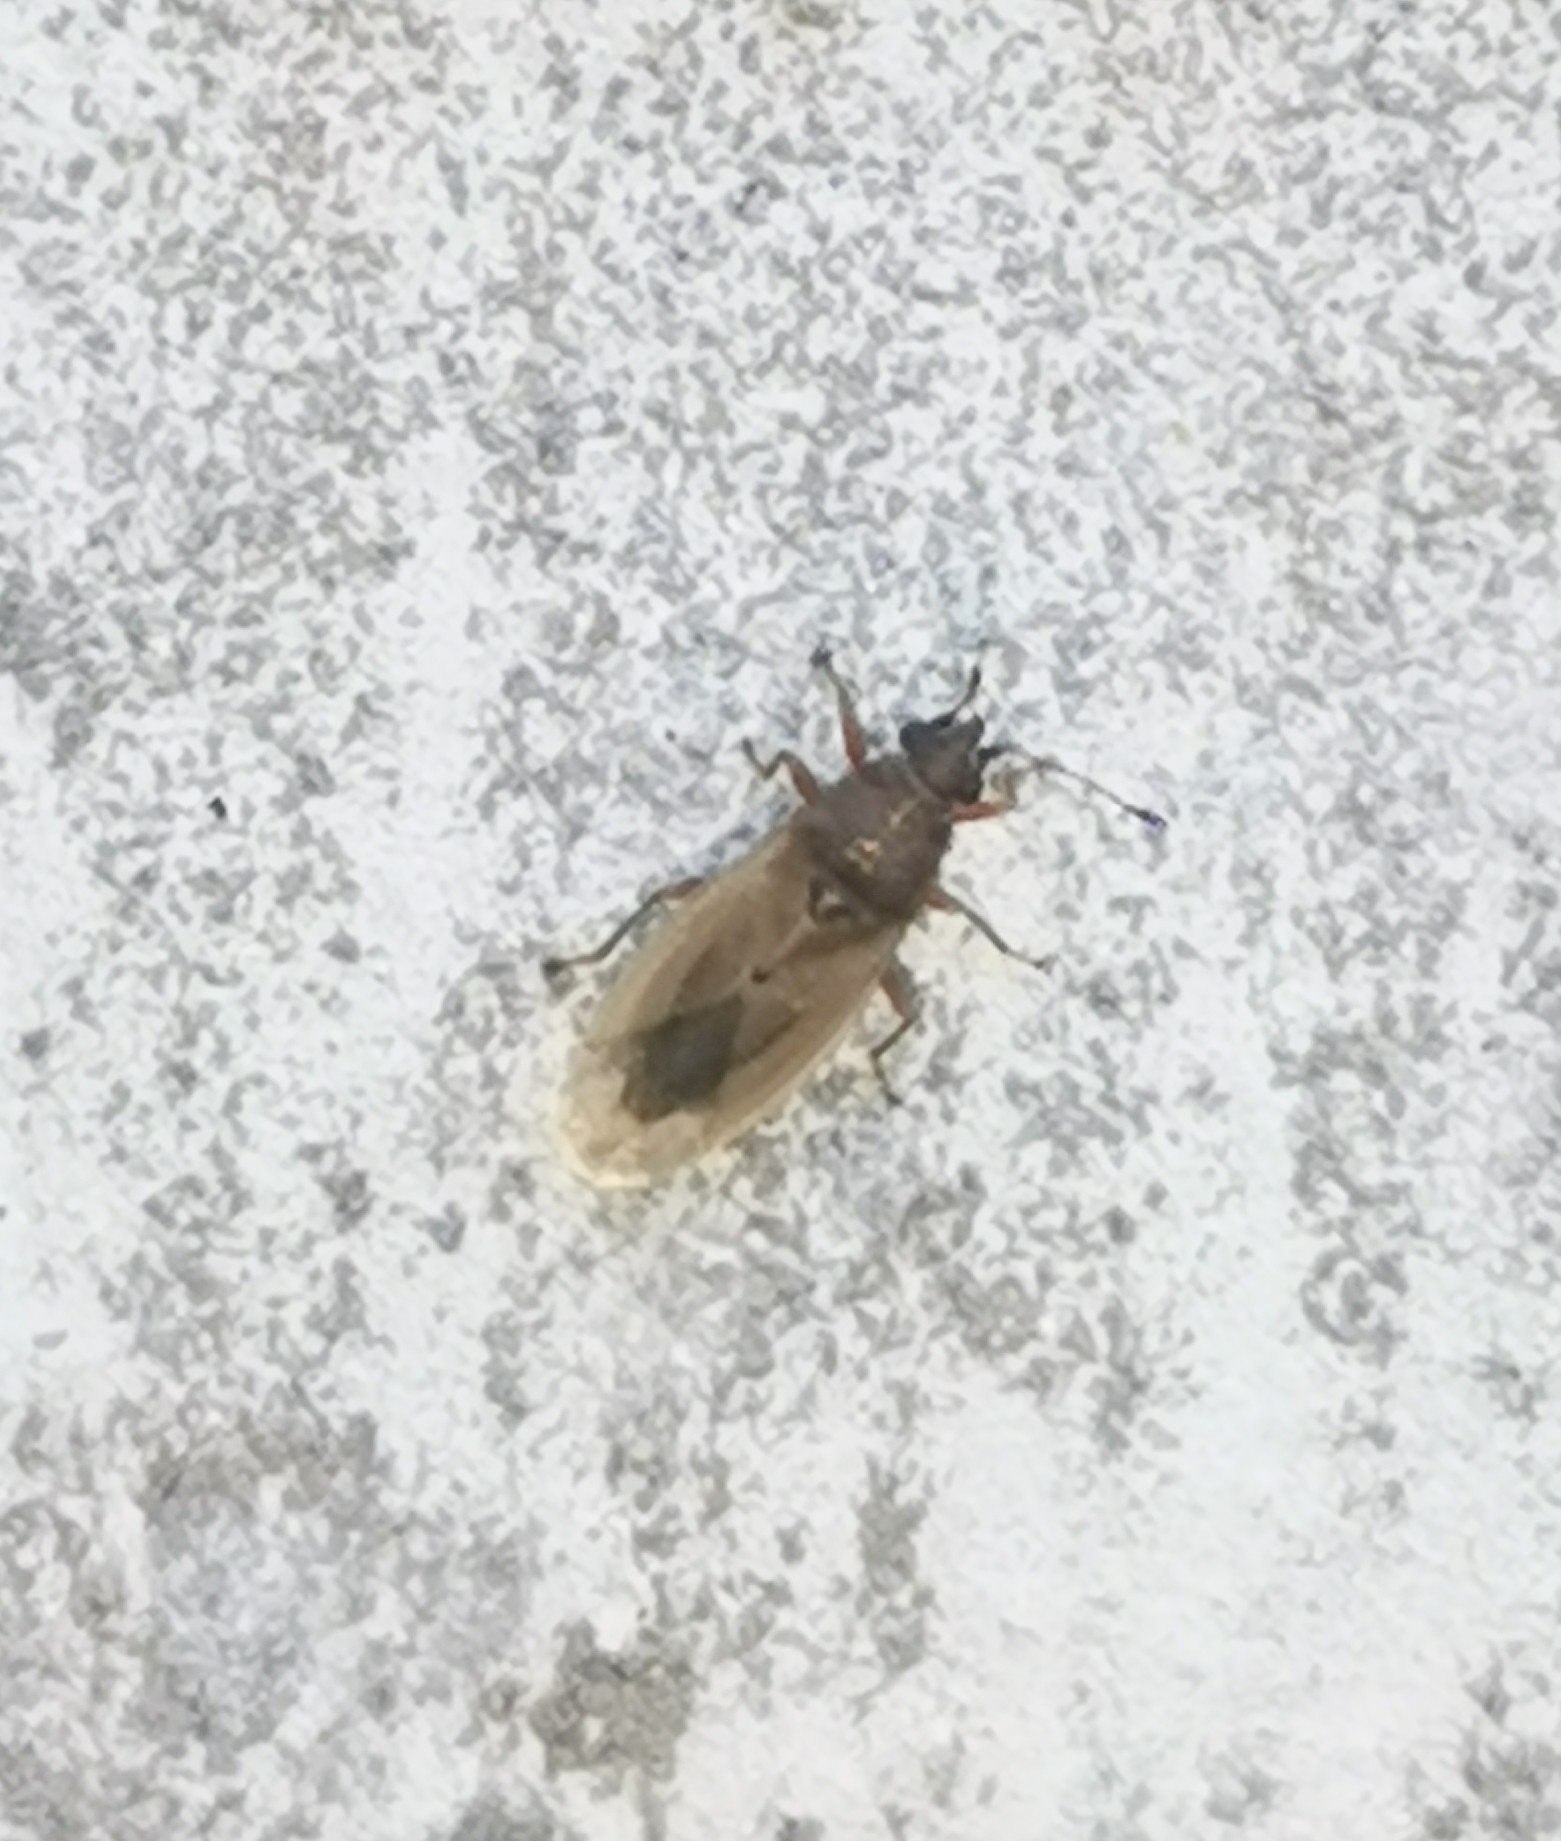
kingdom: Animalia
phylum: Arthropoda
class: Insecta
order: Hemiptera
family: Cymidae
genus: Cymus
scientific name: Cymus glandicolor
